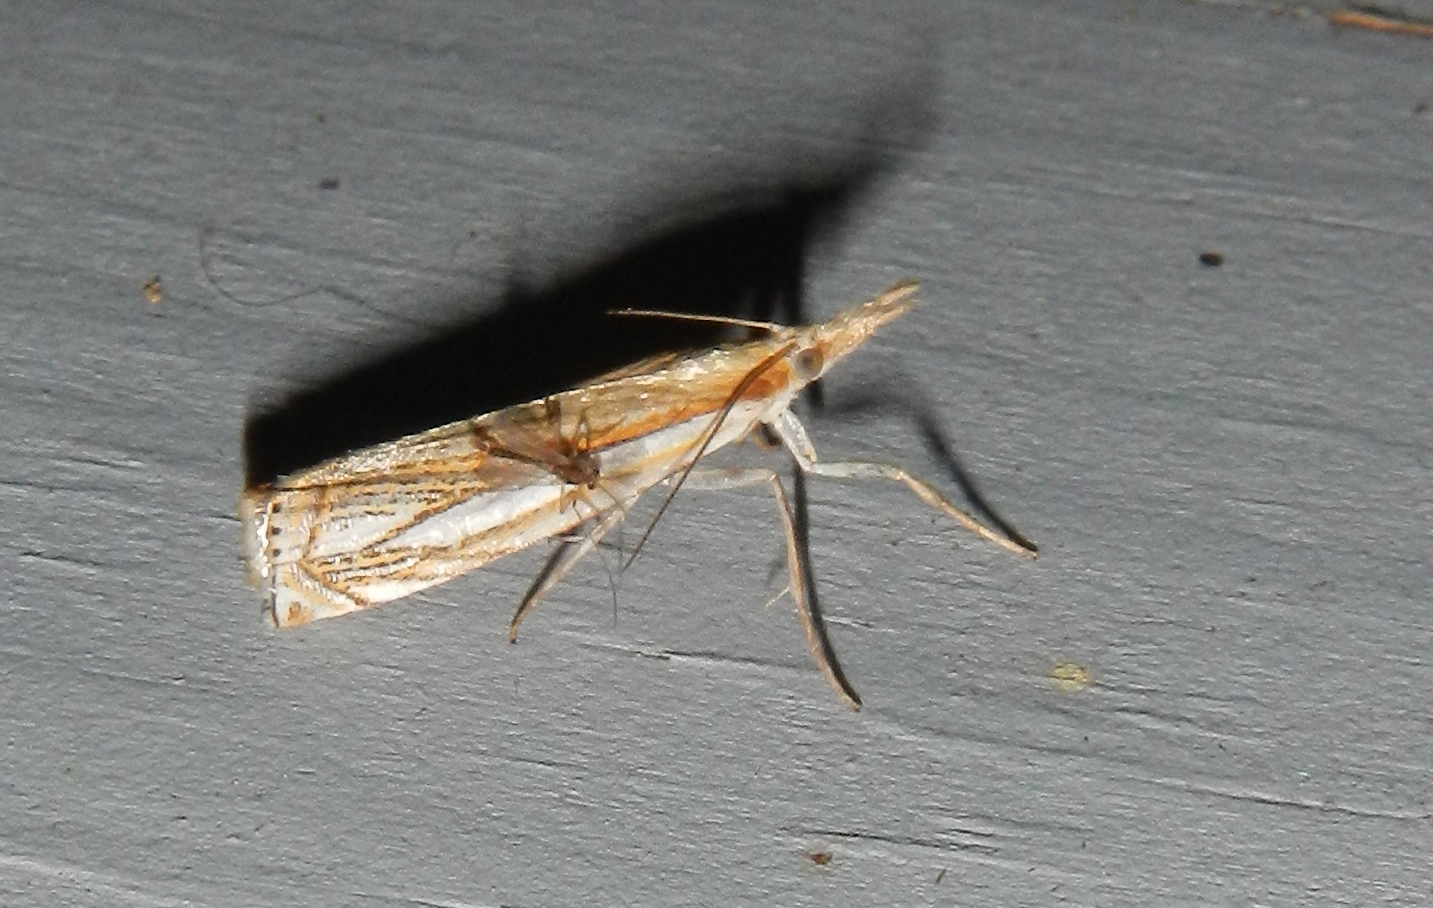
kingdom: Animalia
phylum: Arthropoda
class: Insecta
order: Lepidoptera
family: Crambidae
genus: Crambus
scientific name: Crambus saltuellus
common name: Pasture grass-veneer
